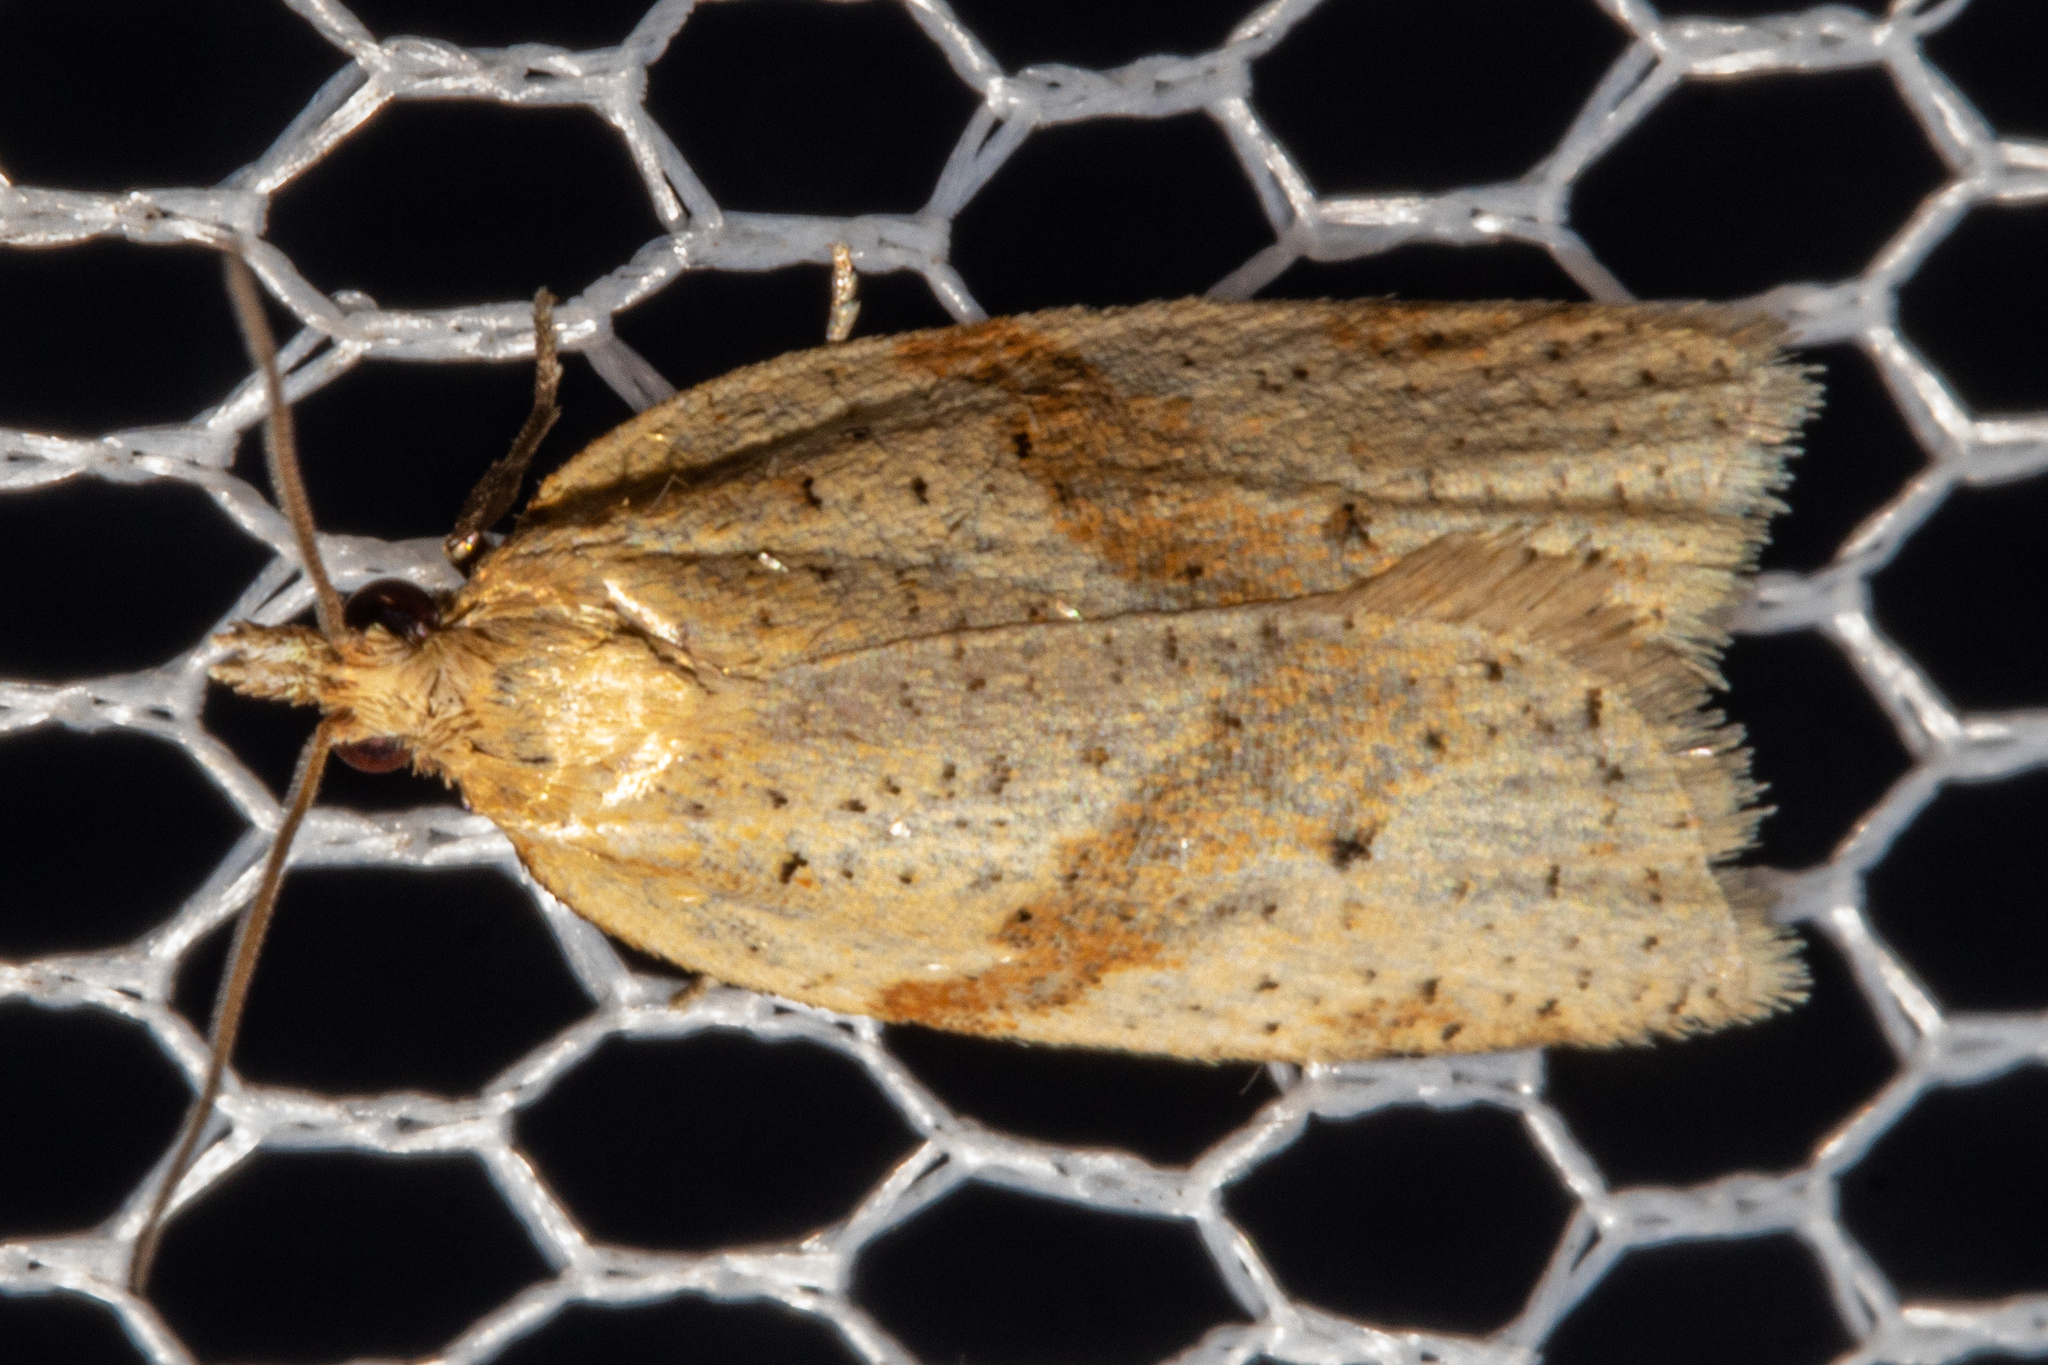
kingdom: Animalia
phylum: Arthropoda
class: Insecta
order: Lepidoptera
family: Tortricidae
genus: Clepsis
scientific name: Clepsis
